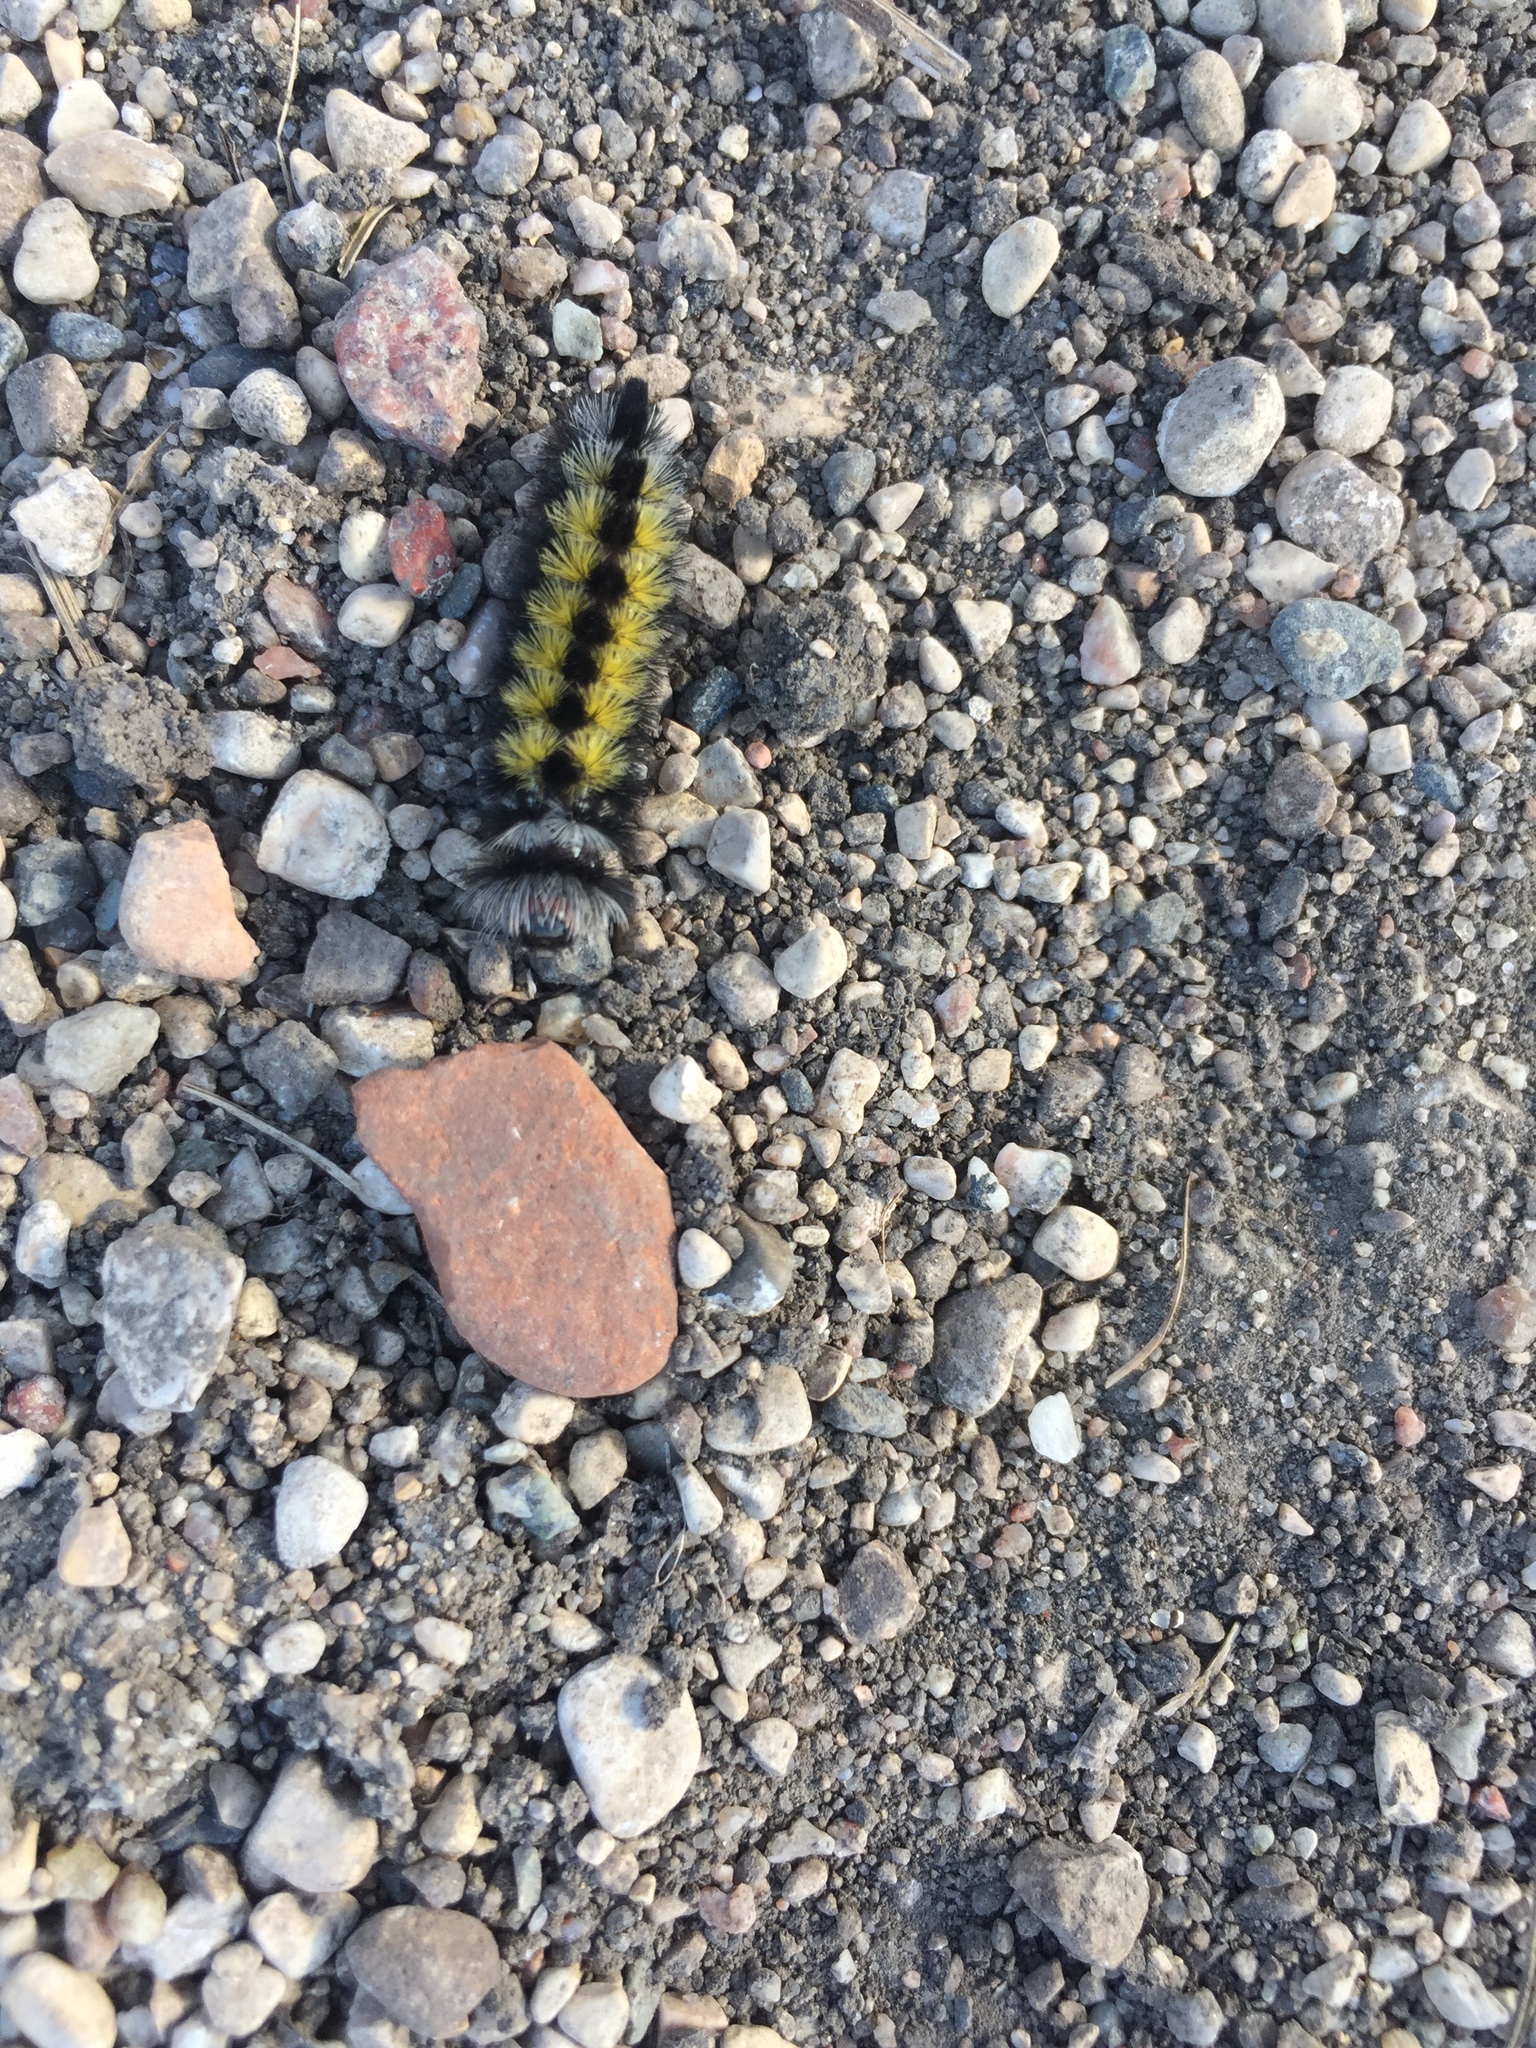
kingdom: Animalia
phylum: Arthropoda
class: Insecta
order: Lepidoptera
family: Erebidae
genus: Ctenucha
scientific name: Ctenucha virginica
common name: Virginia ctenucha moth
